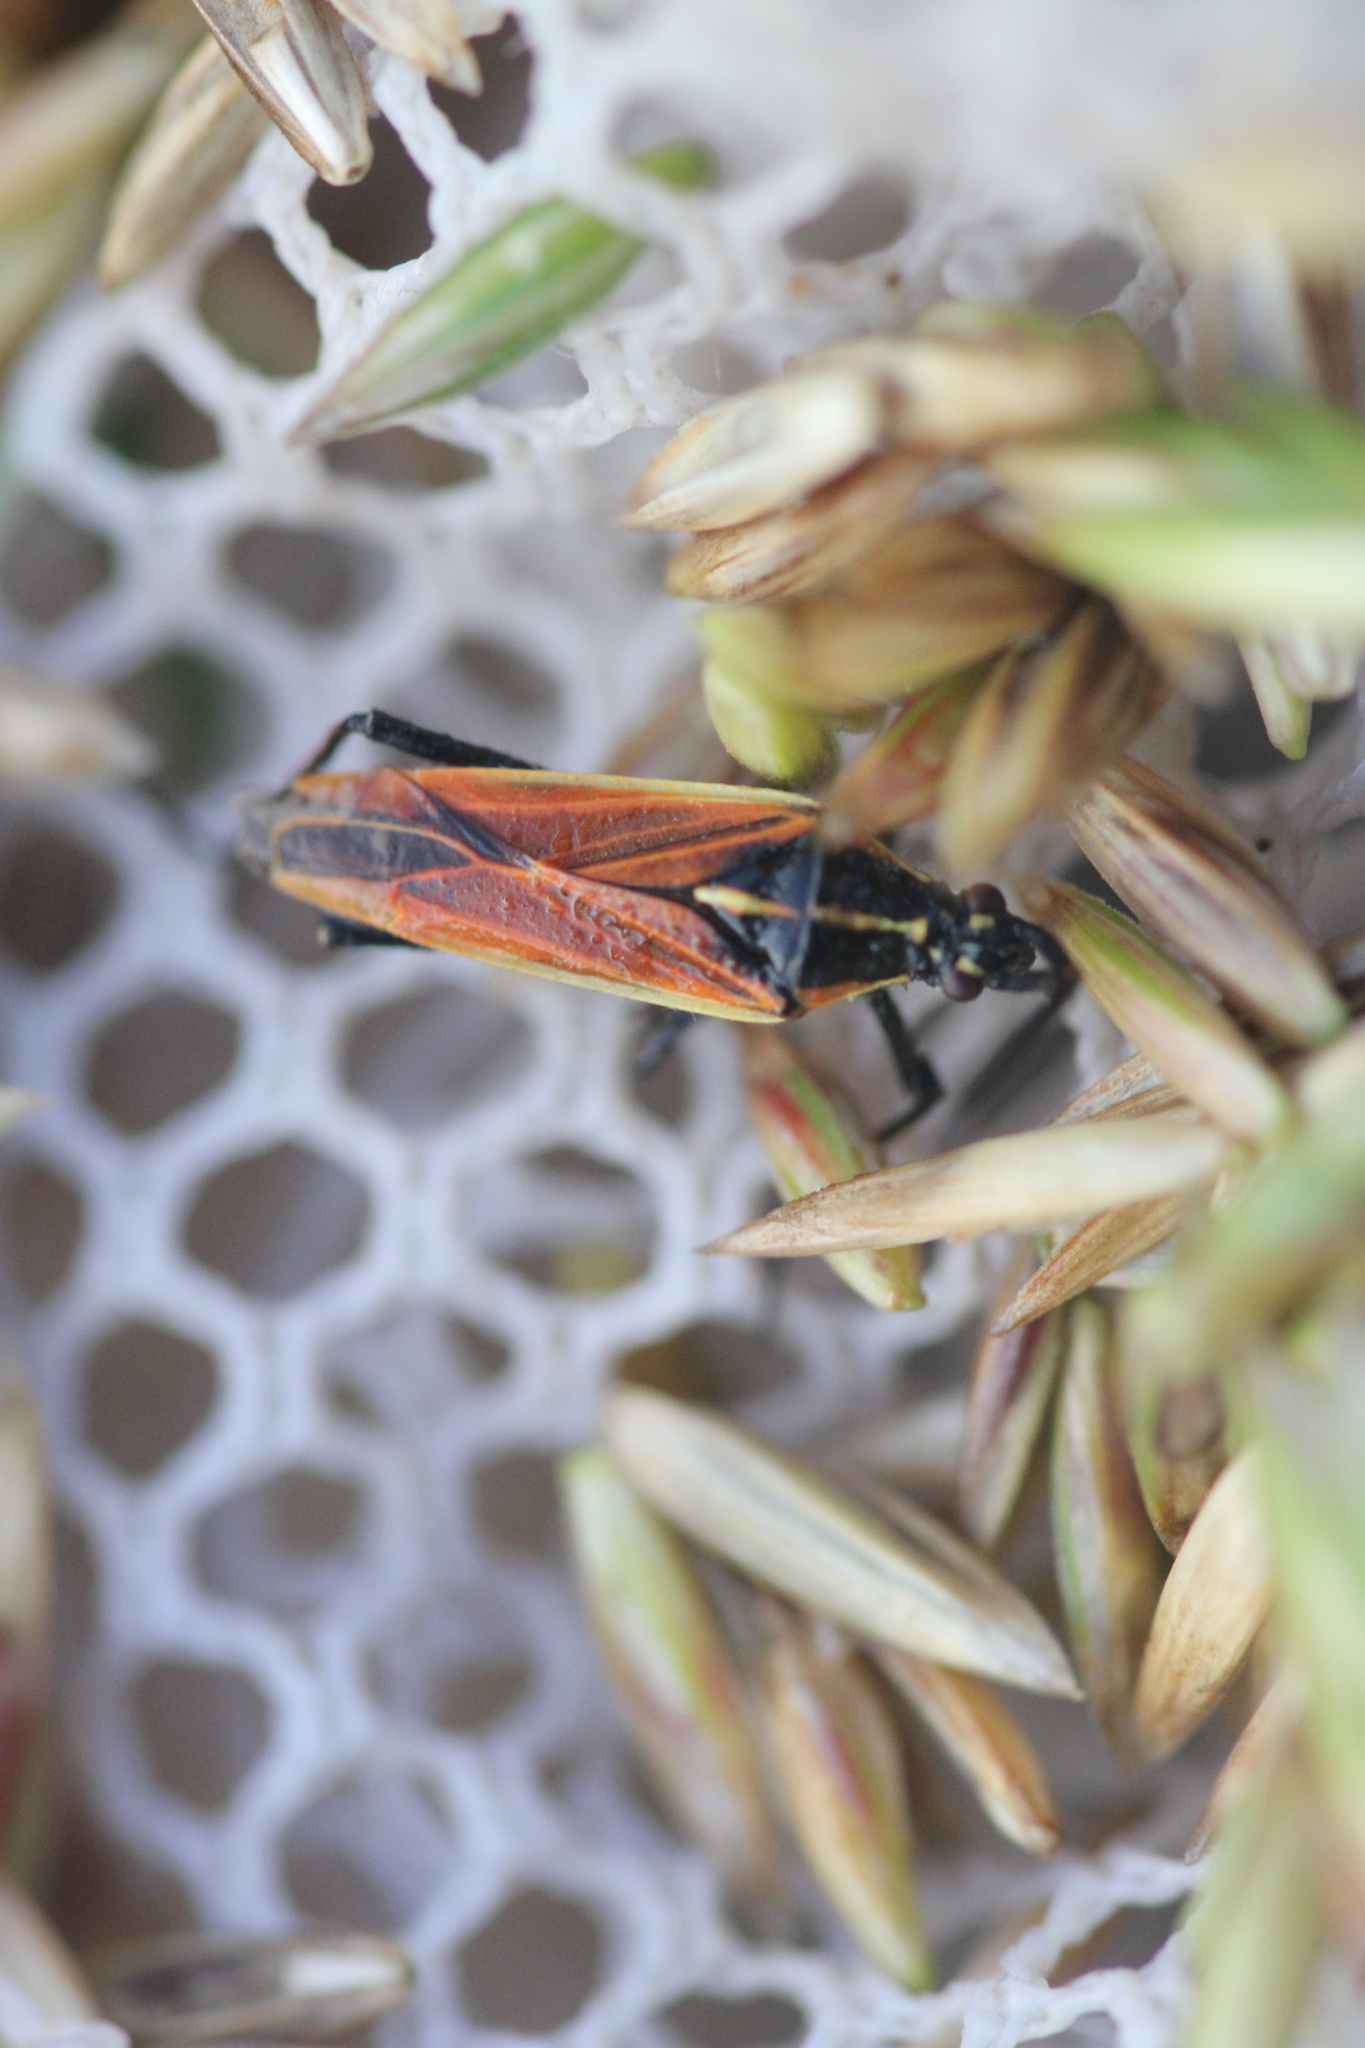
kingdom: Animalia
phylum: Arthropoda
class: Insecta
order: Hemiptera
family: Miridae
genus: Leptopterna
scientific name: Leptopterna dolabrata
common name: Meadow plant bug
